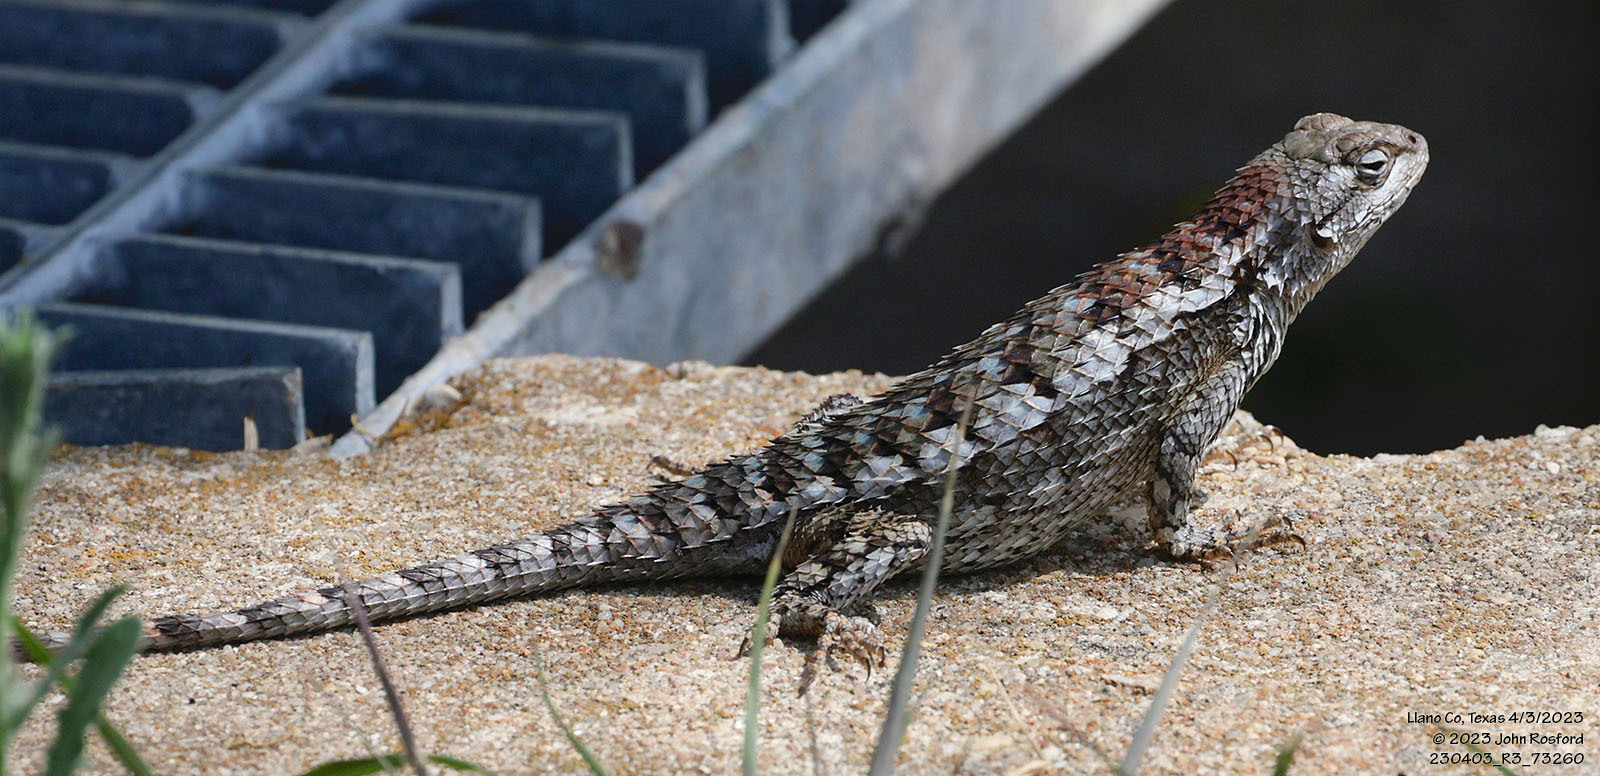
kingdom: Animalia
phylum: Chordata
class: Squamata
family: Phrynosomatidae
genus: Sceloporus
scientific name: Sceloporus olivaceus
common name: Texas spiny lizard
